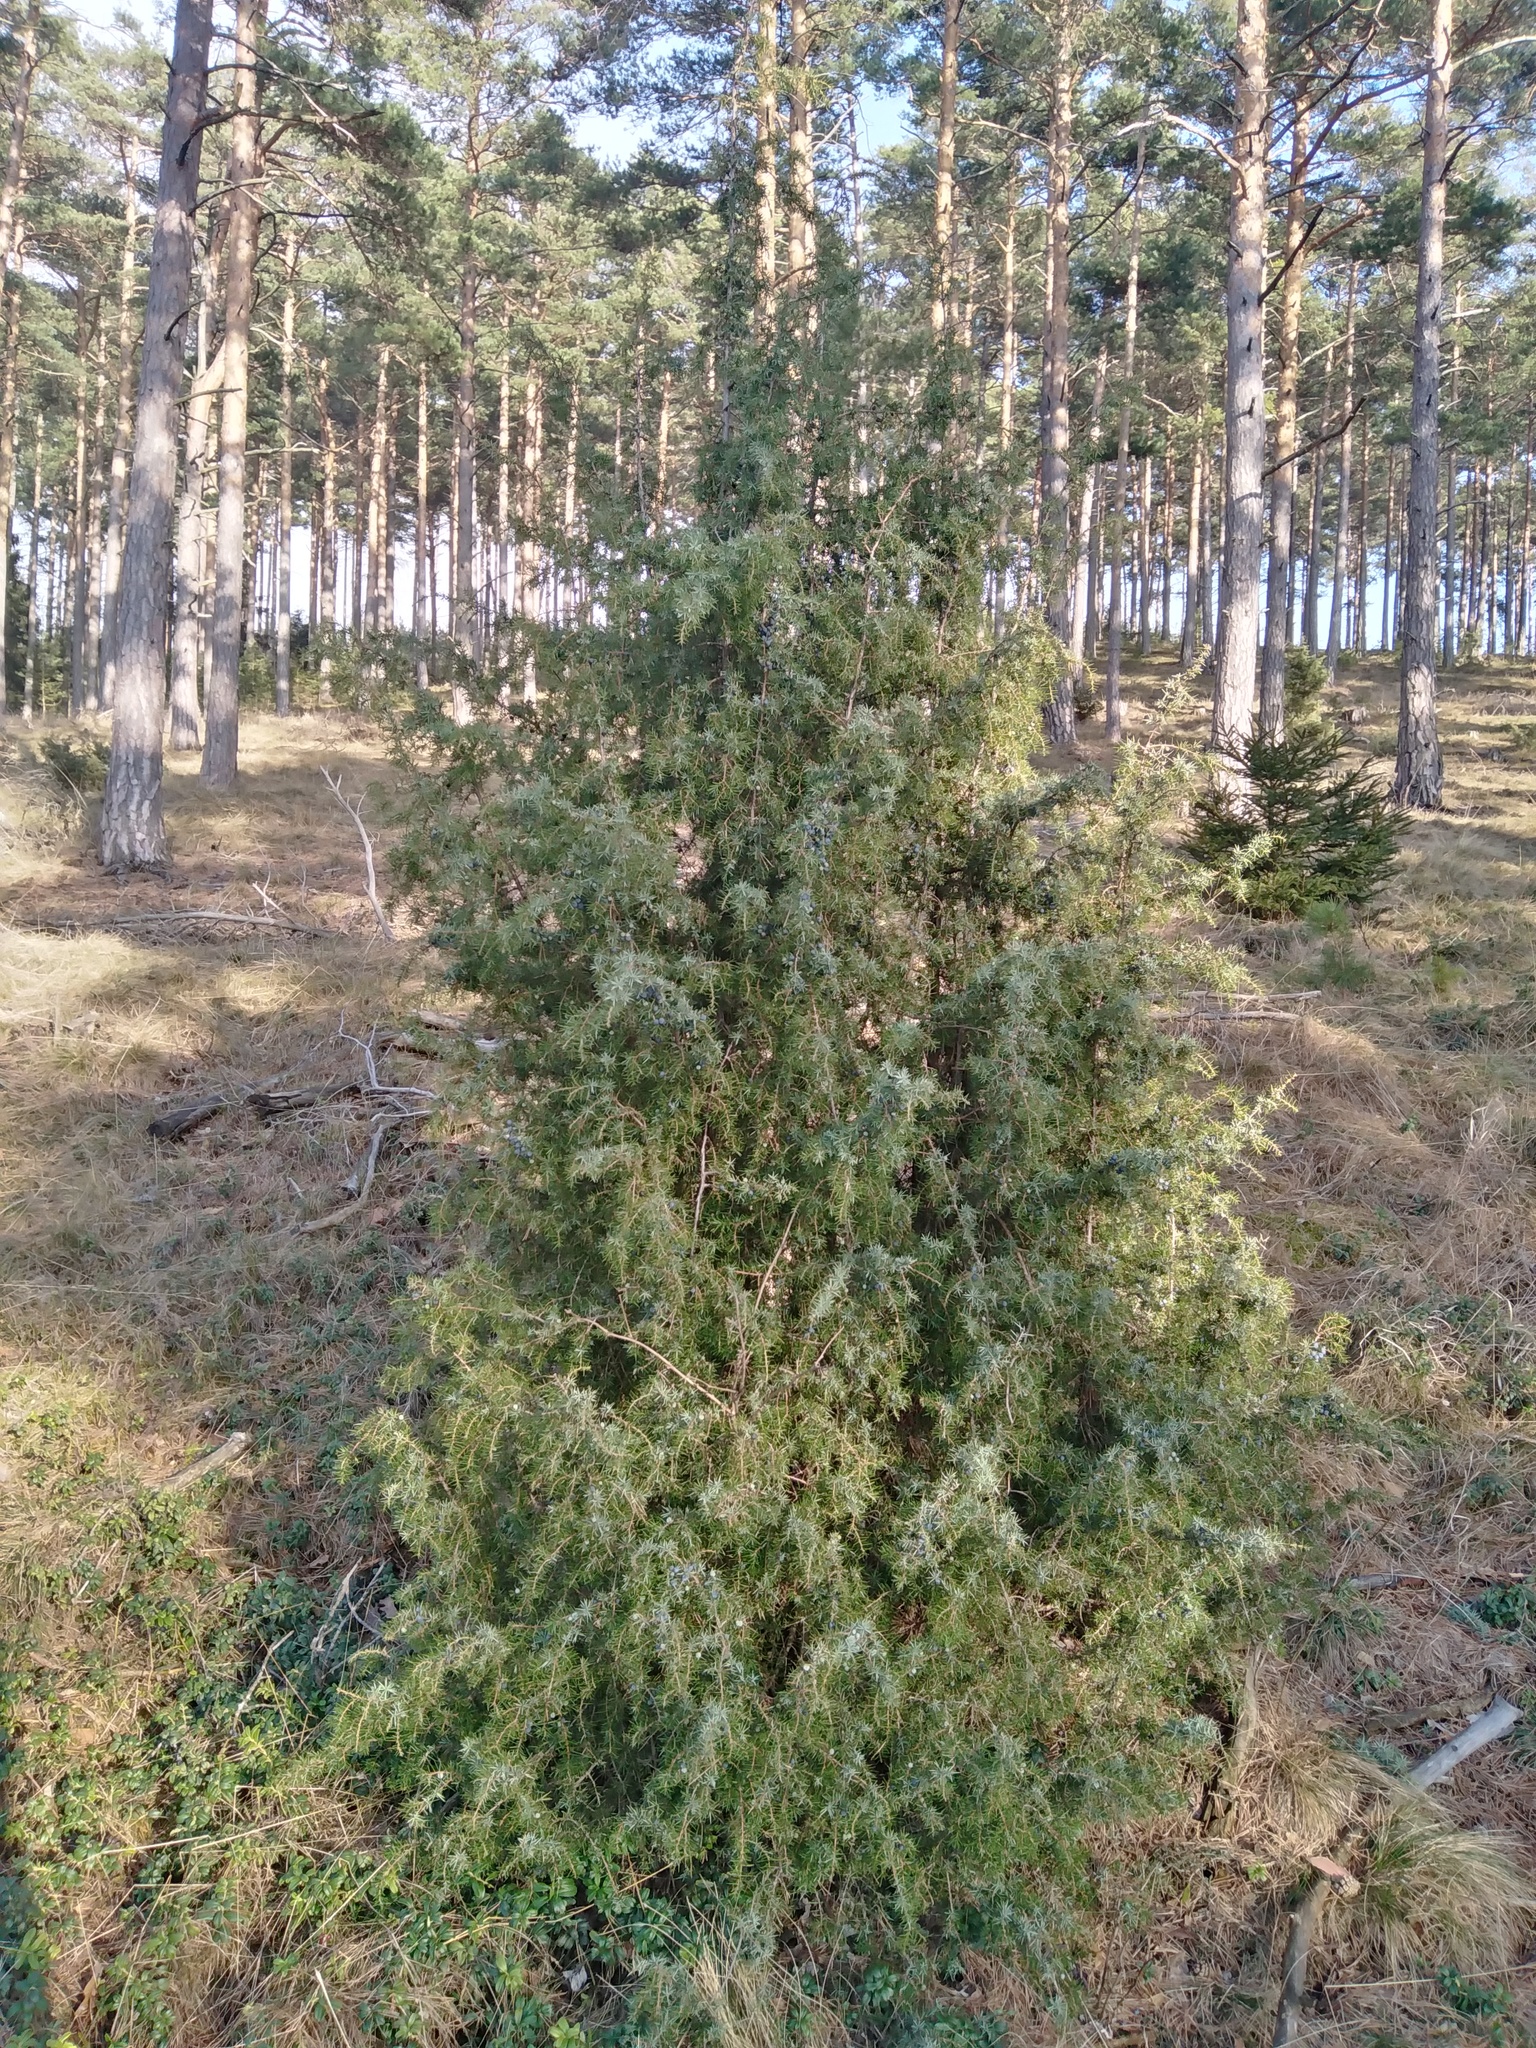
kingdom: Plantae
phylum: Tracheophyta
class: Pinopsida
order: Pinales
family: Cupressaceae
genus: Juniperus
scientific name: Juniperus communis
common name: Common juniper
